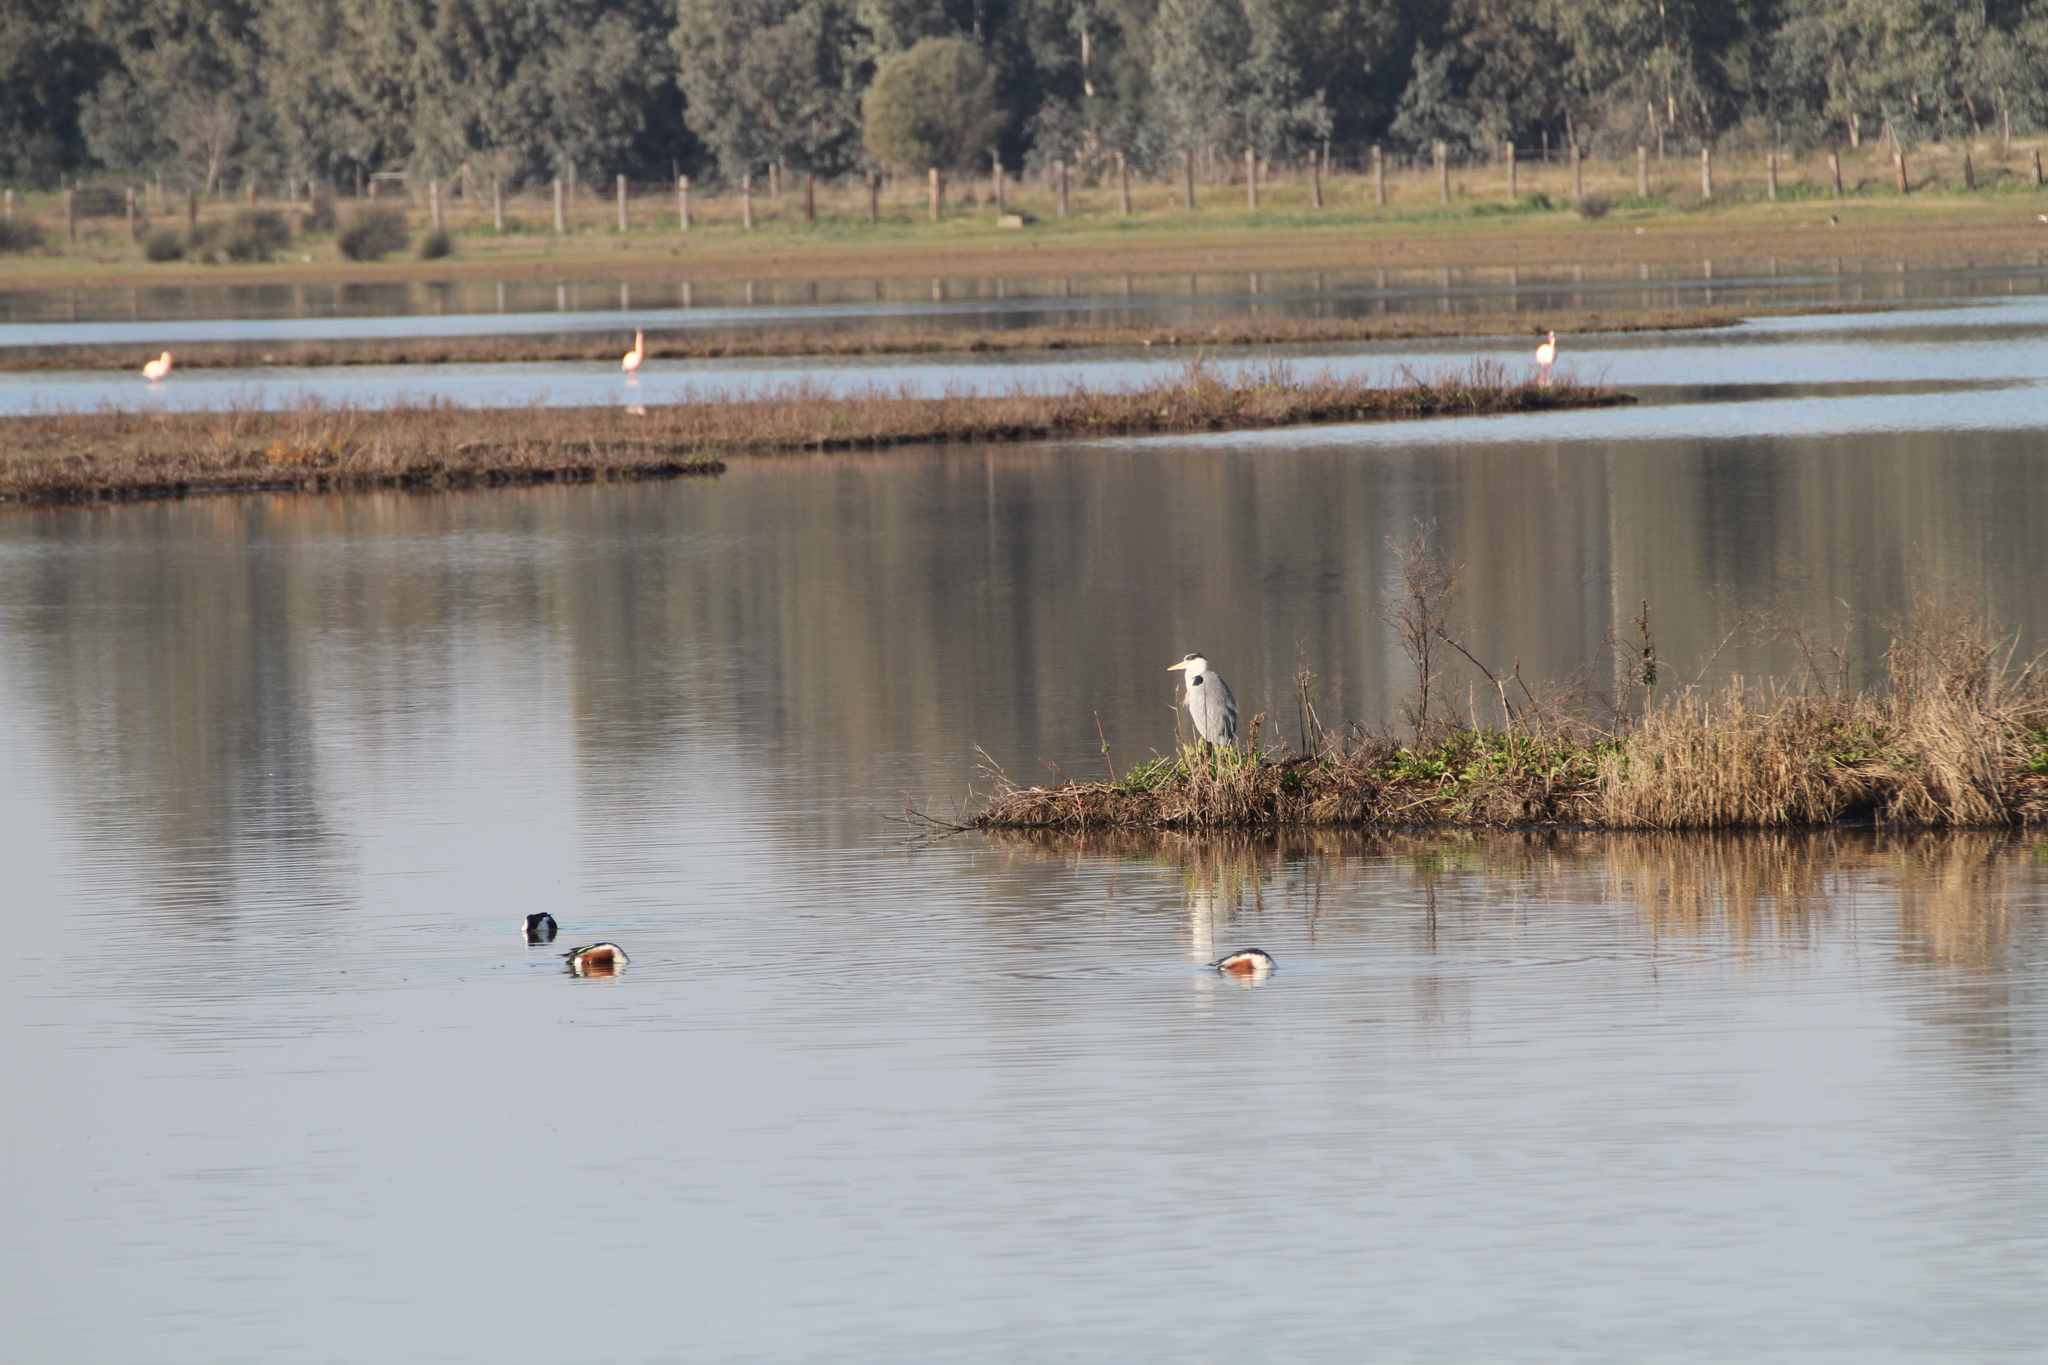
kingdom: Animalia
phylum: Chordata
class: Aves
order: Pelecaniformes
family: Ardeidae
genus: Ardea
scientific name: Ardea cinerea
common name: Grey heron
